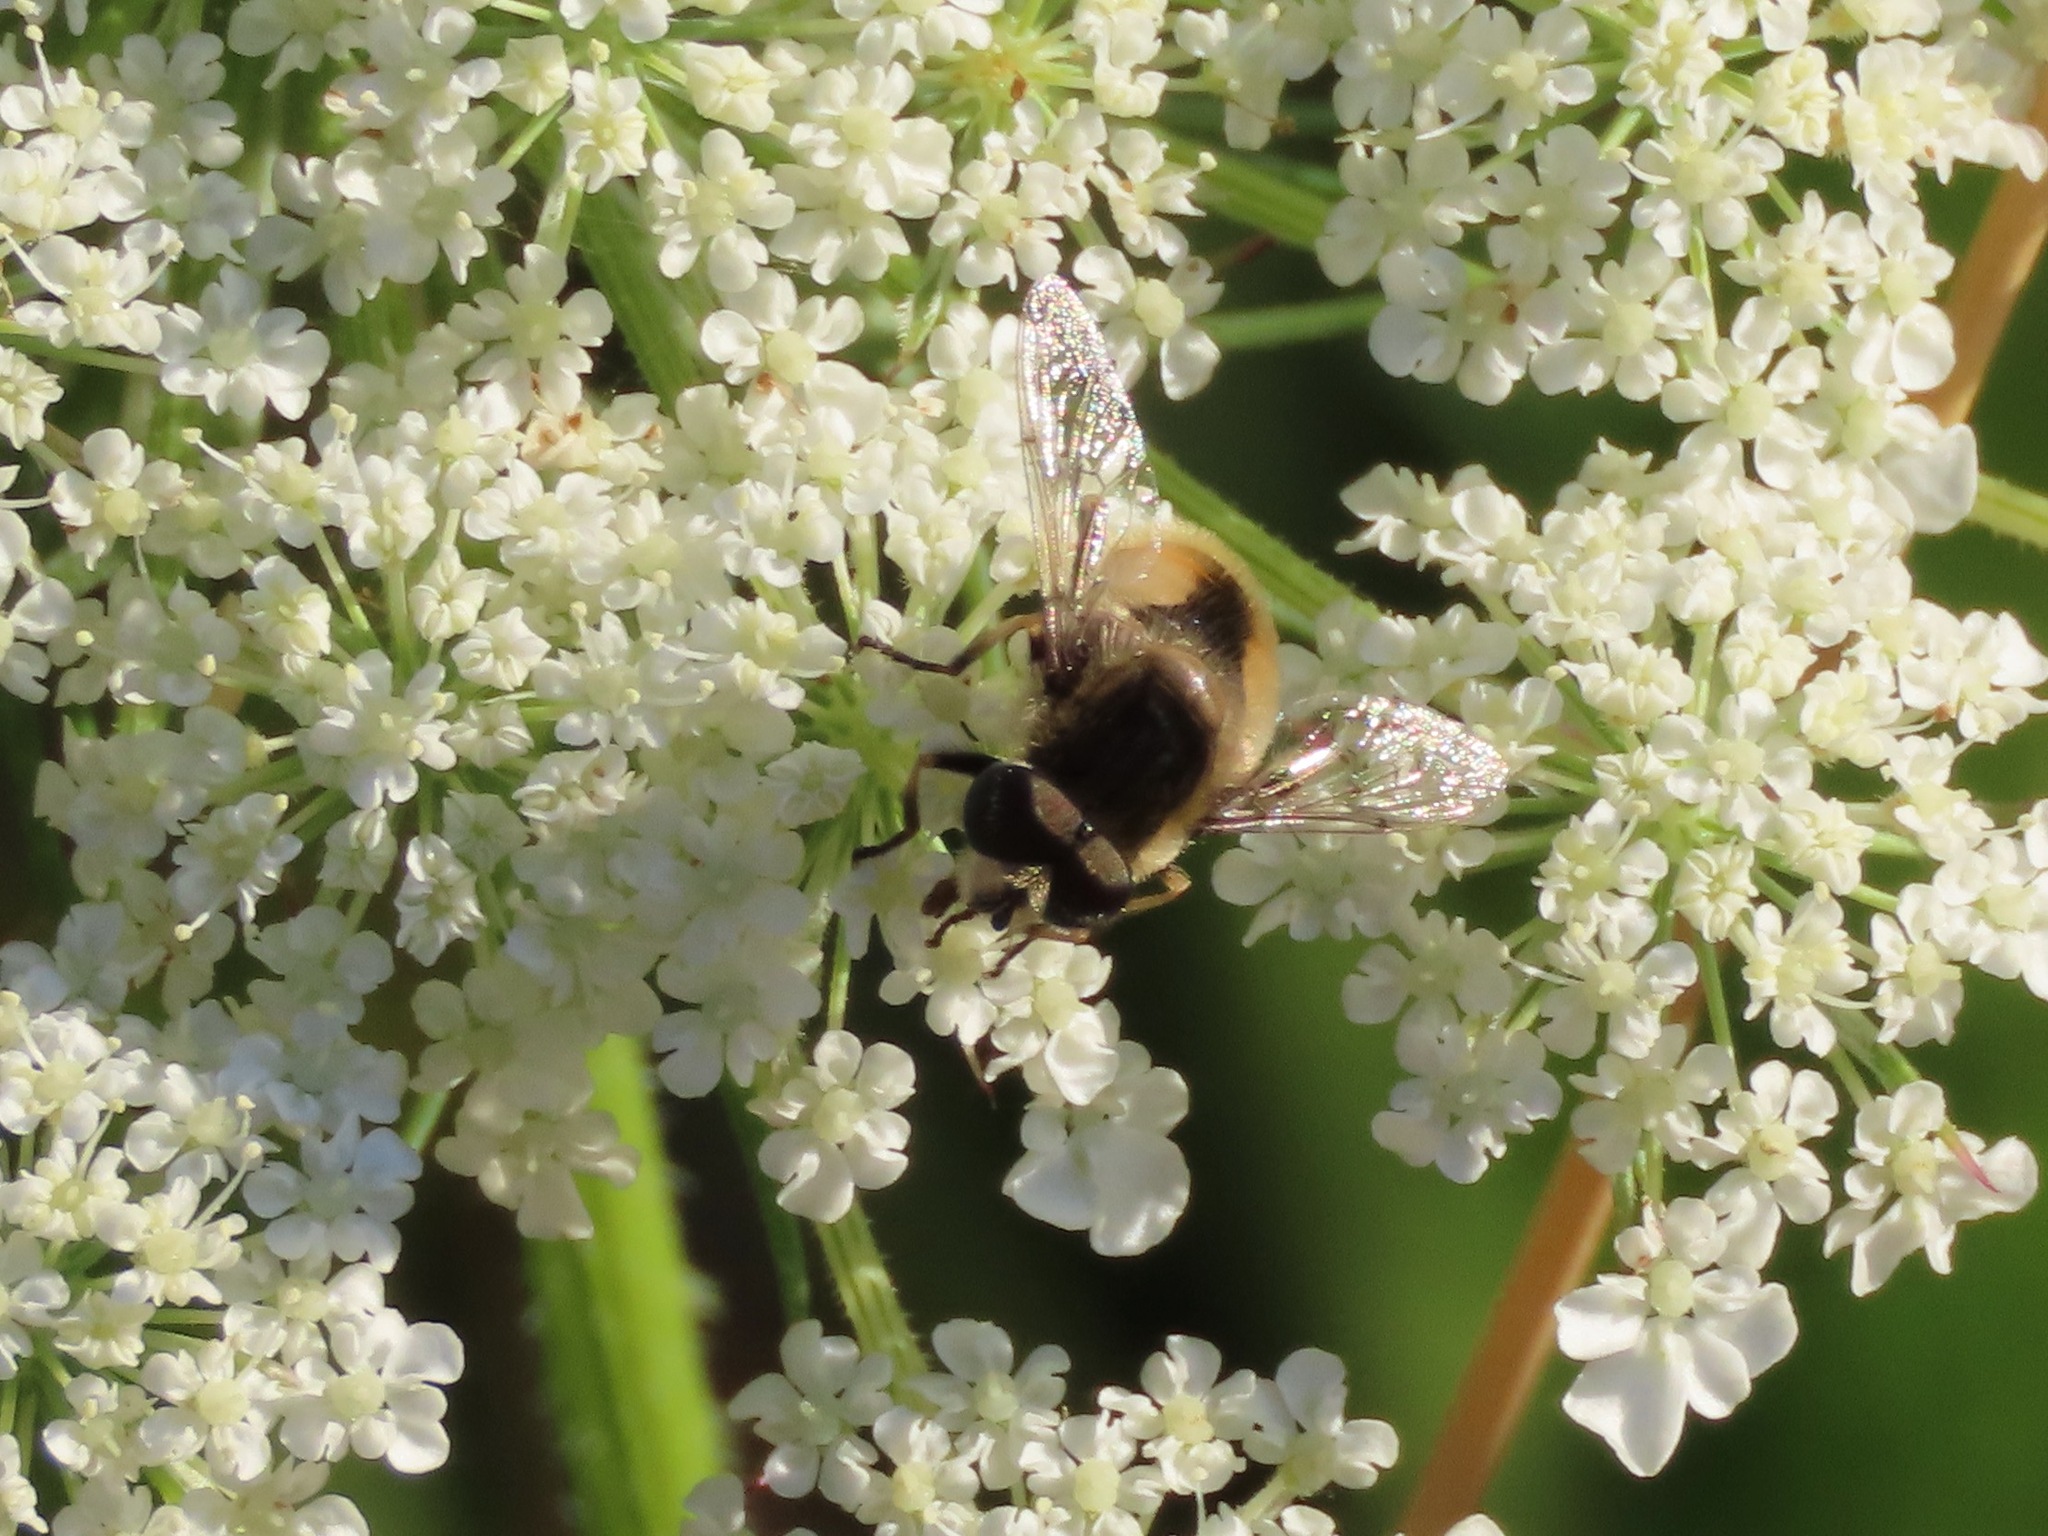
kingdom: Animalia
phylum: Arthropoda
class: Insecta
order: Diptera
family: Syrphidae
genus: Eristalis
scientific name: Eristalis anthophorina
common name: Orange-spotted drone fly
